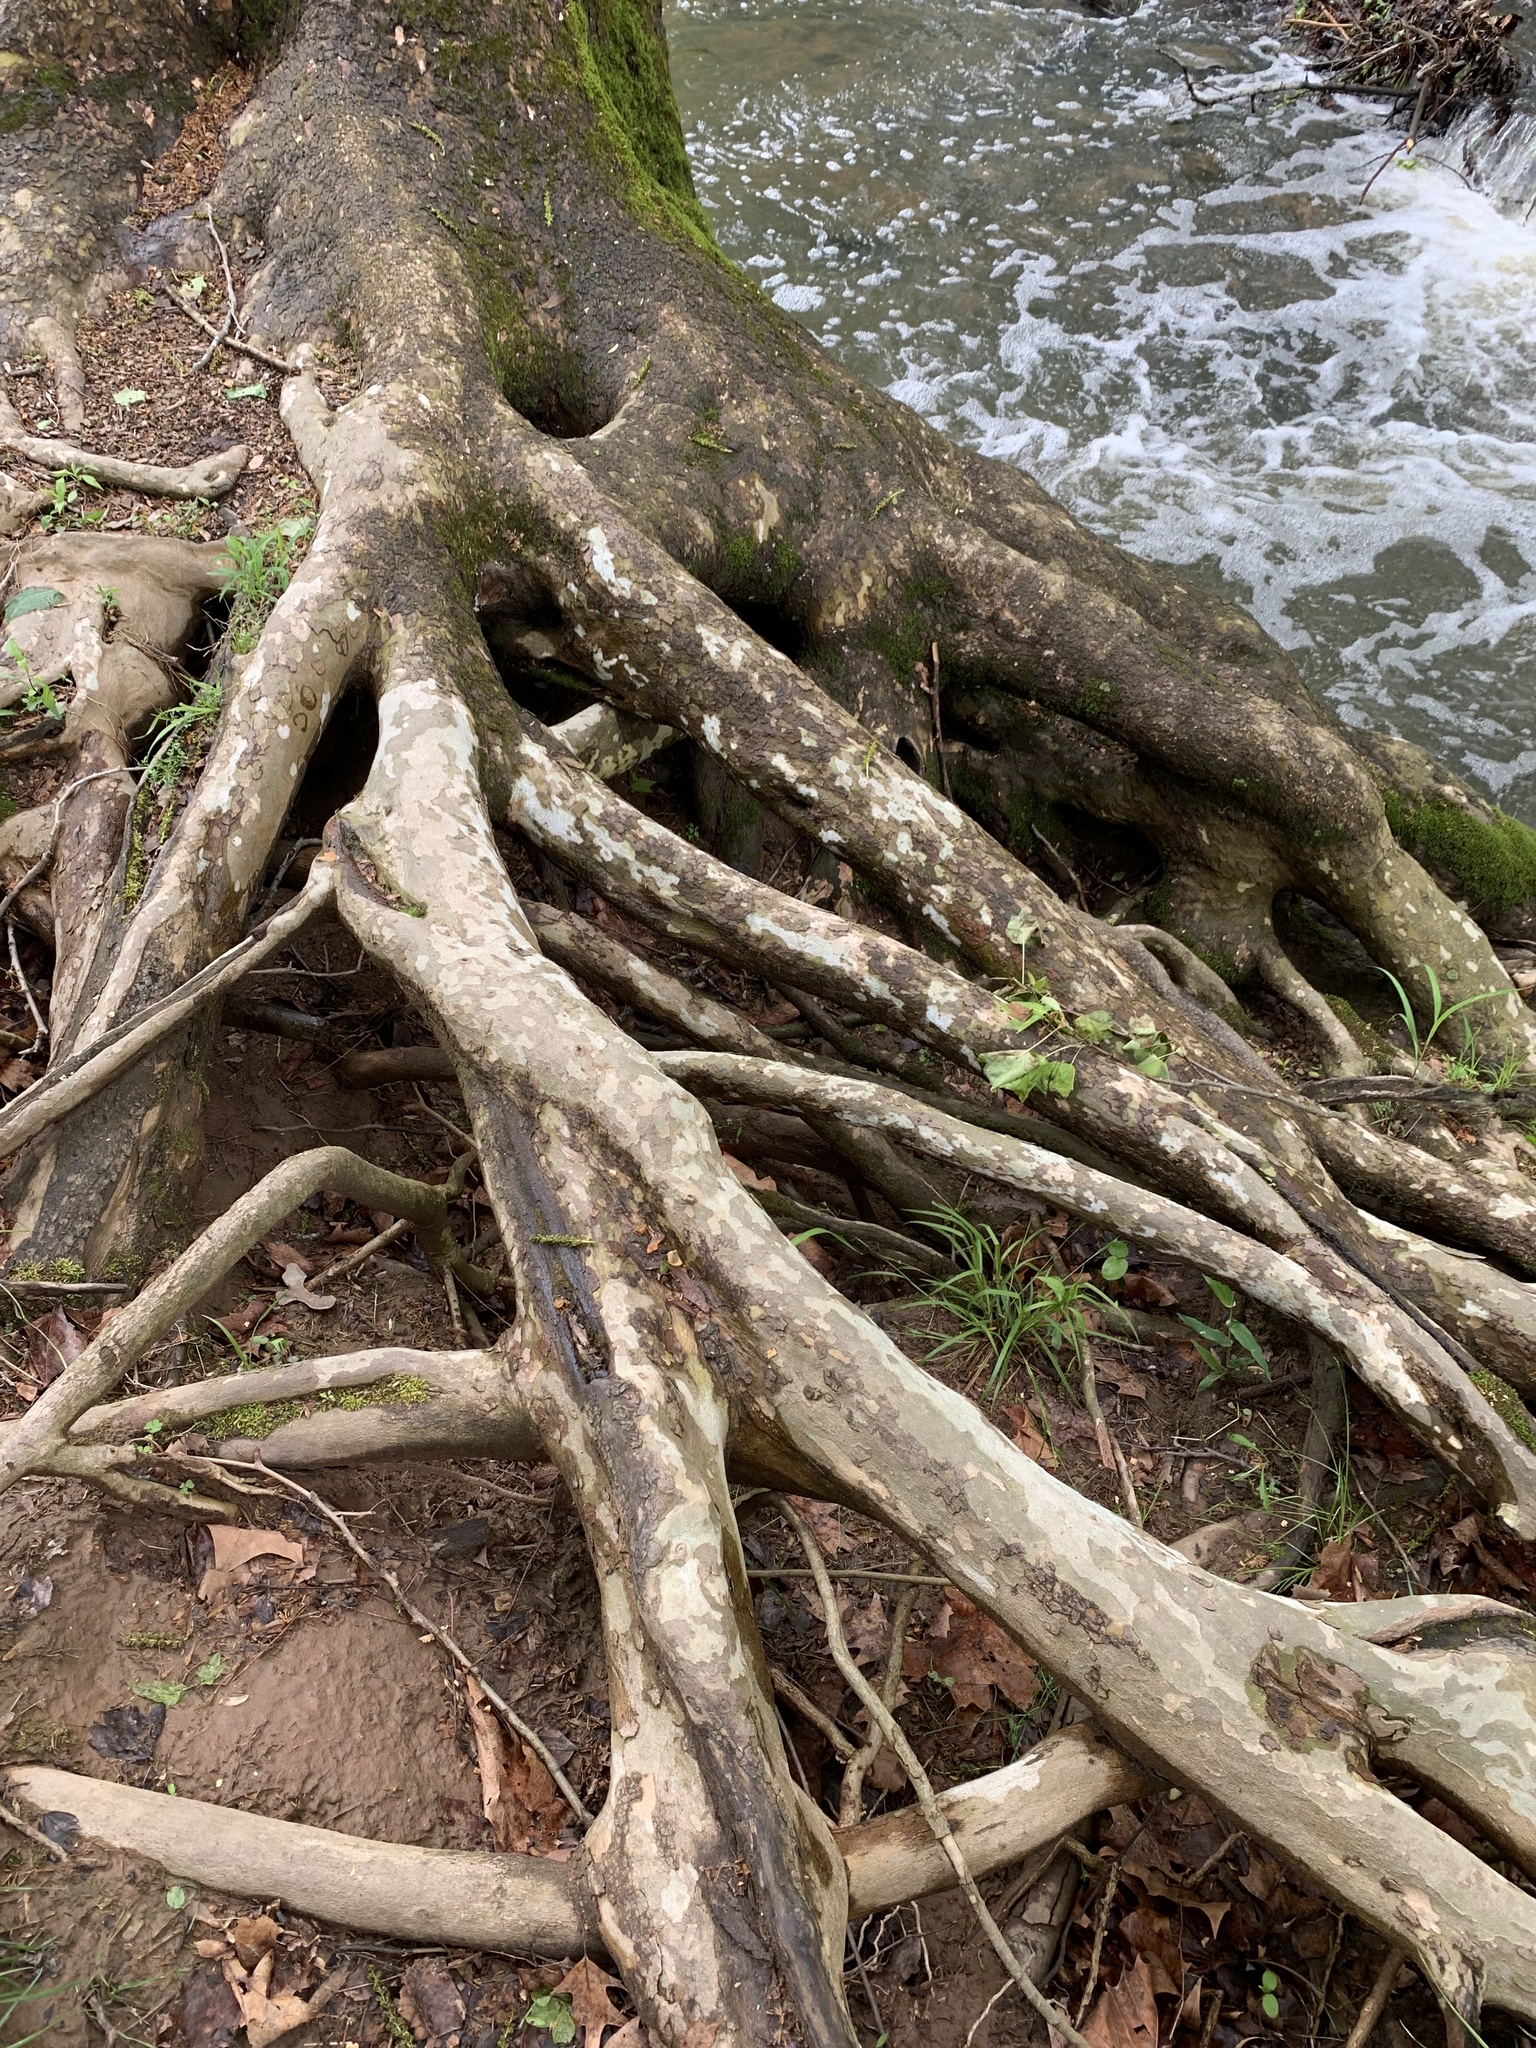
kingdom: Plantae
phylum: Tracheophyta
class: Magnoliopsida
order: Proteales
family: Platanaceae
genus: Platanus
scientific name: Platanus occidentalis
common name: American sycamore
